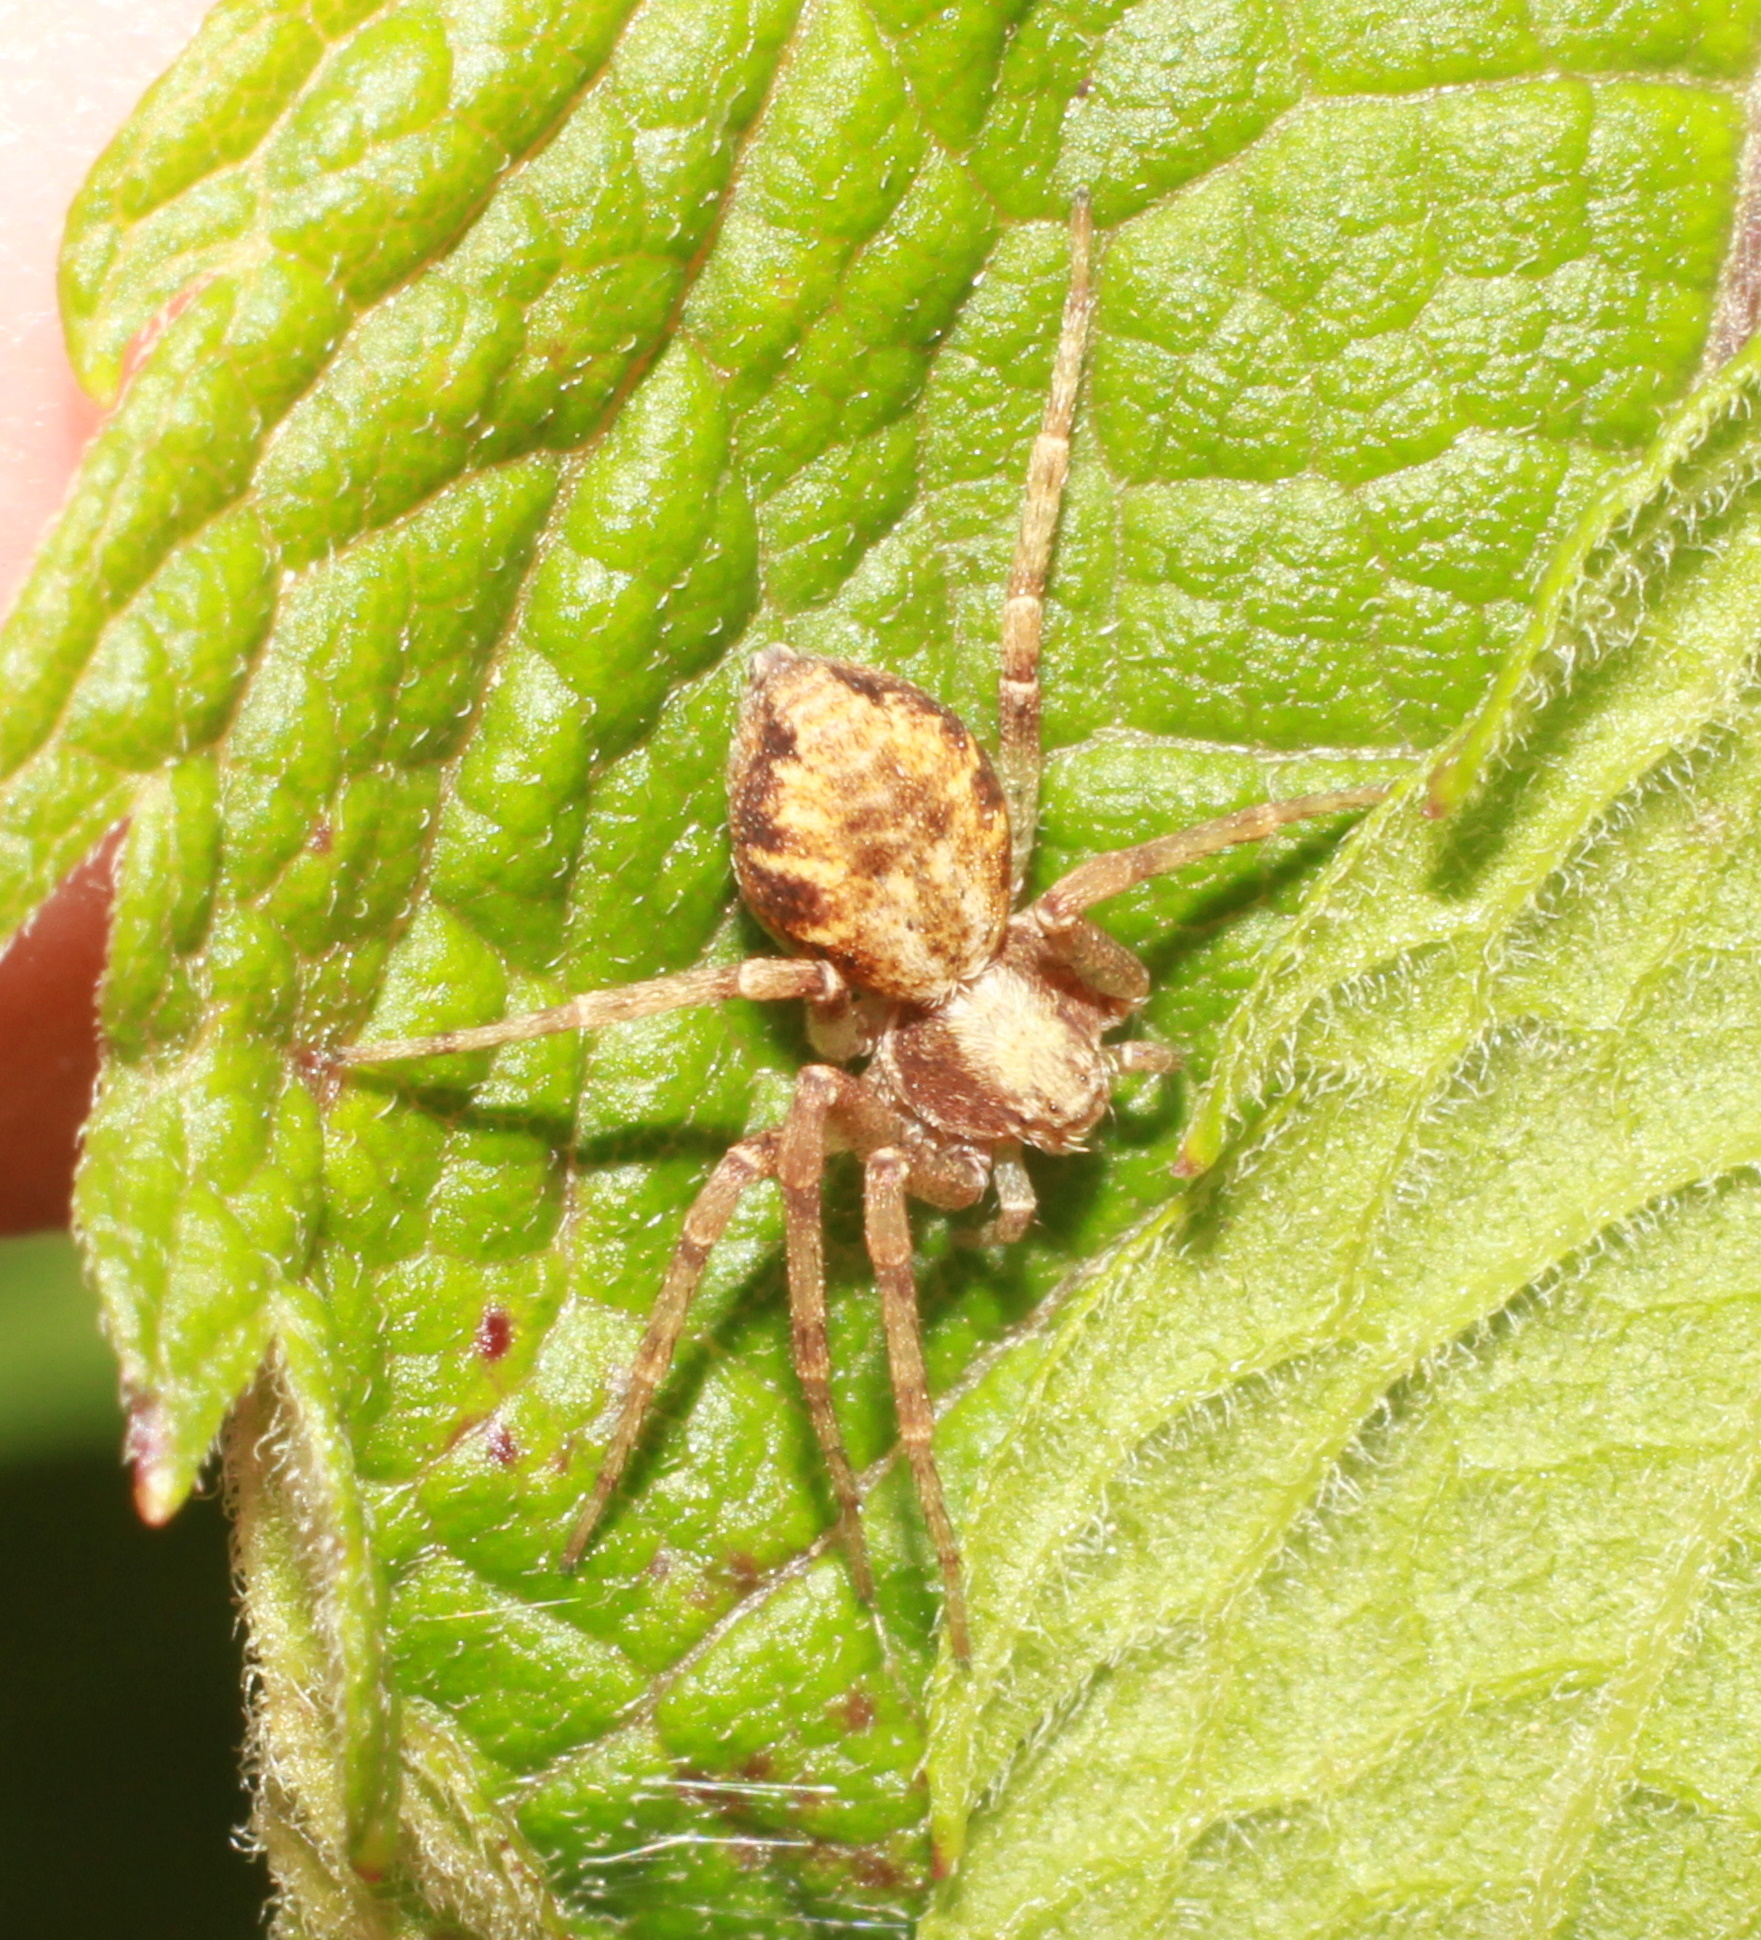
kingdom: Animalia
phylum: Arthropoda
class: Arachnida
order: Araneae
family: Philodromidae
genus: Philodromus
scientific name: Philodromus
